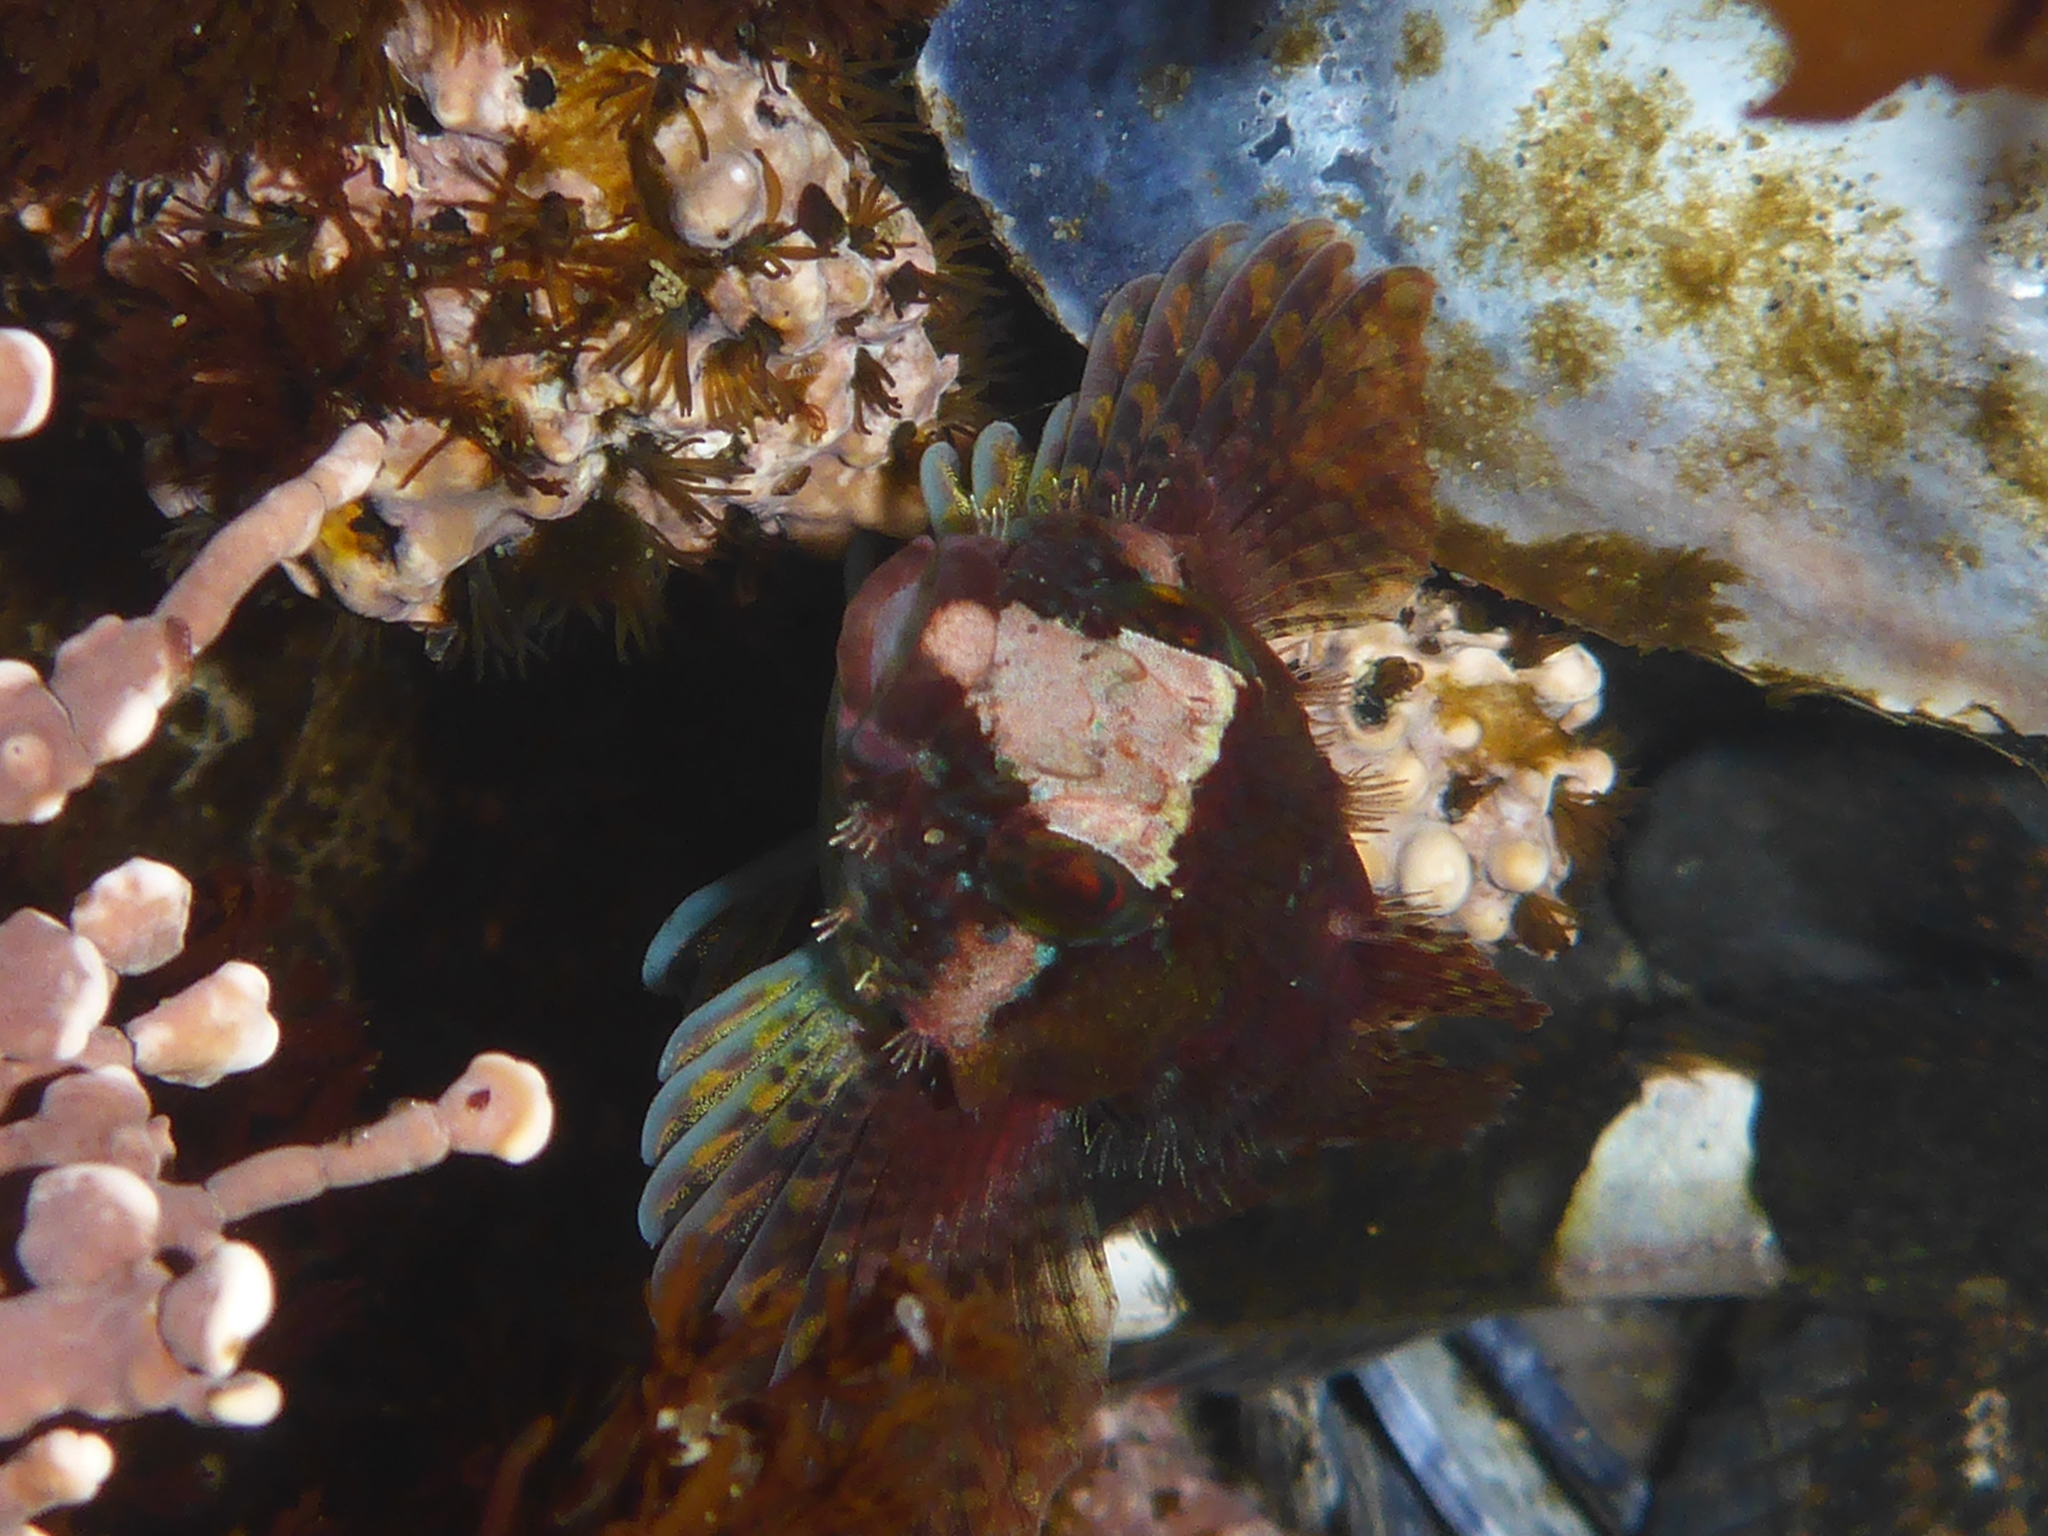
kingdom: Animalia
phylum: Chordata
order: Scorpaeniformes
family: Cottidae
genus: Oligocottus
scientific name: Oligocottus rubellio
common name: Rosy sculpin
